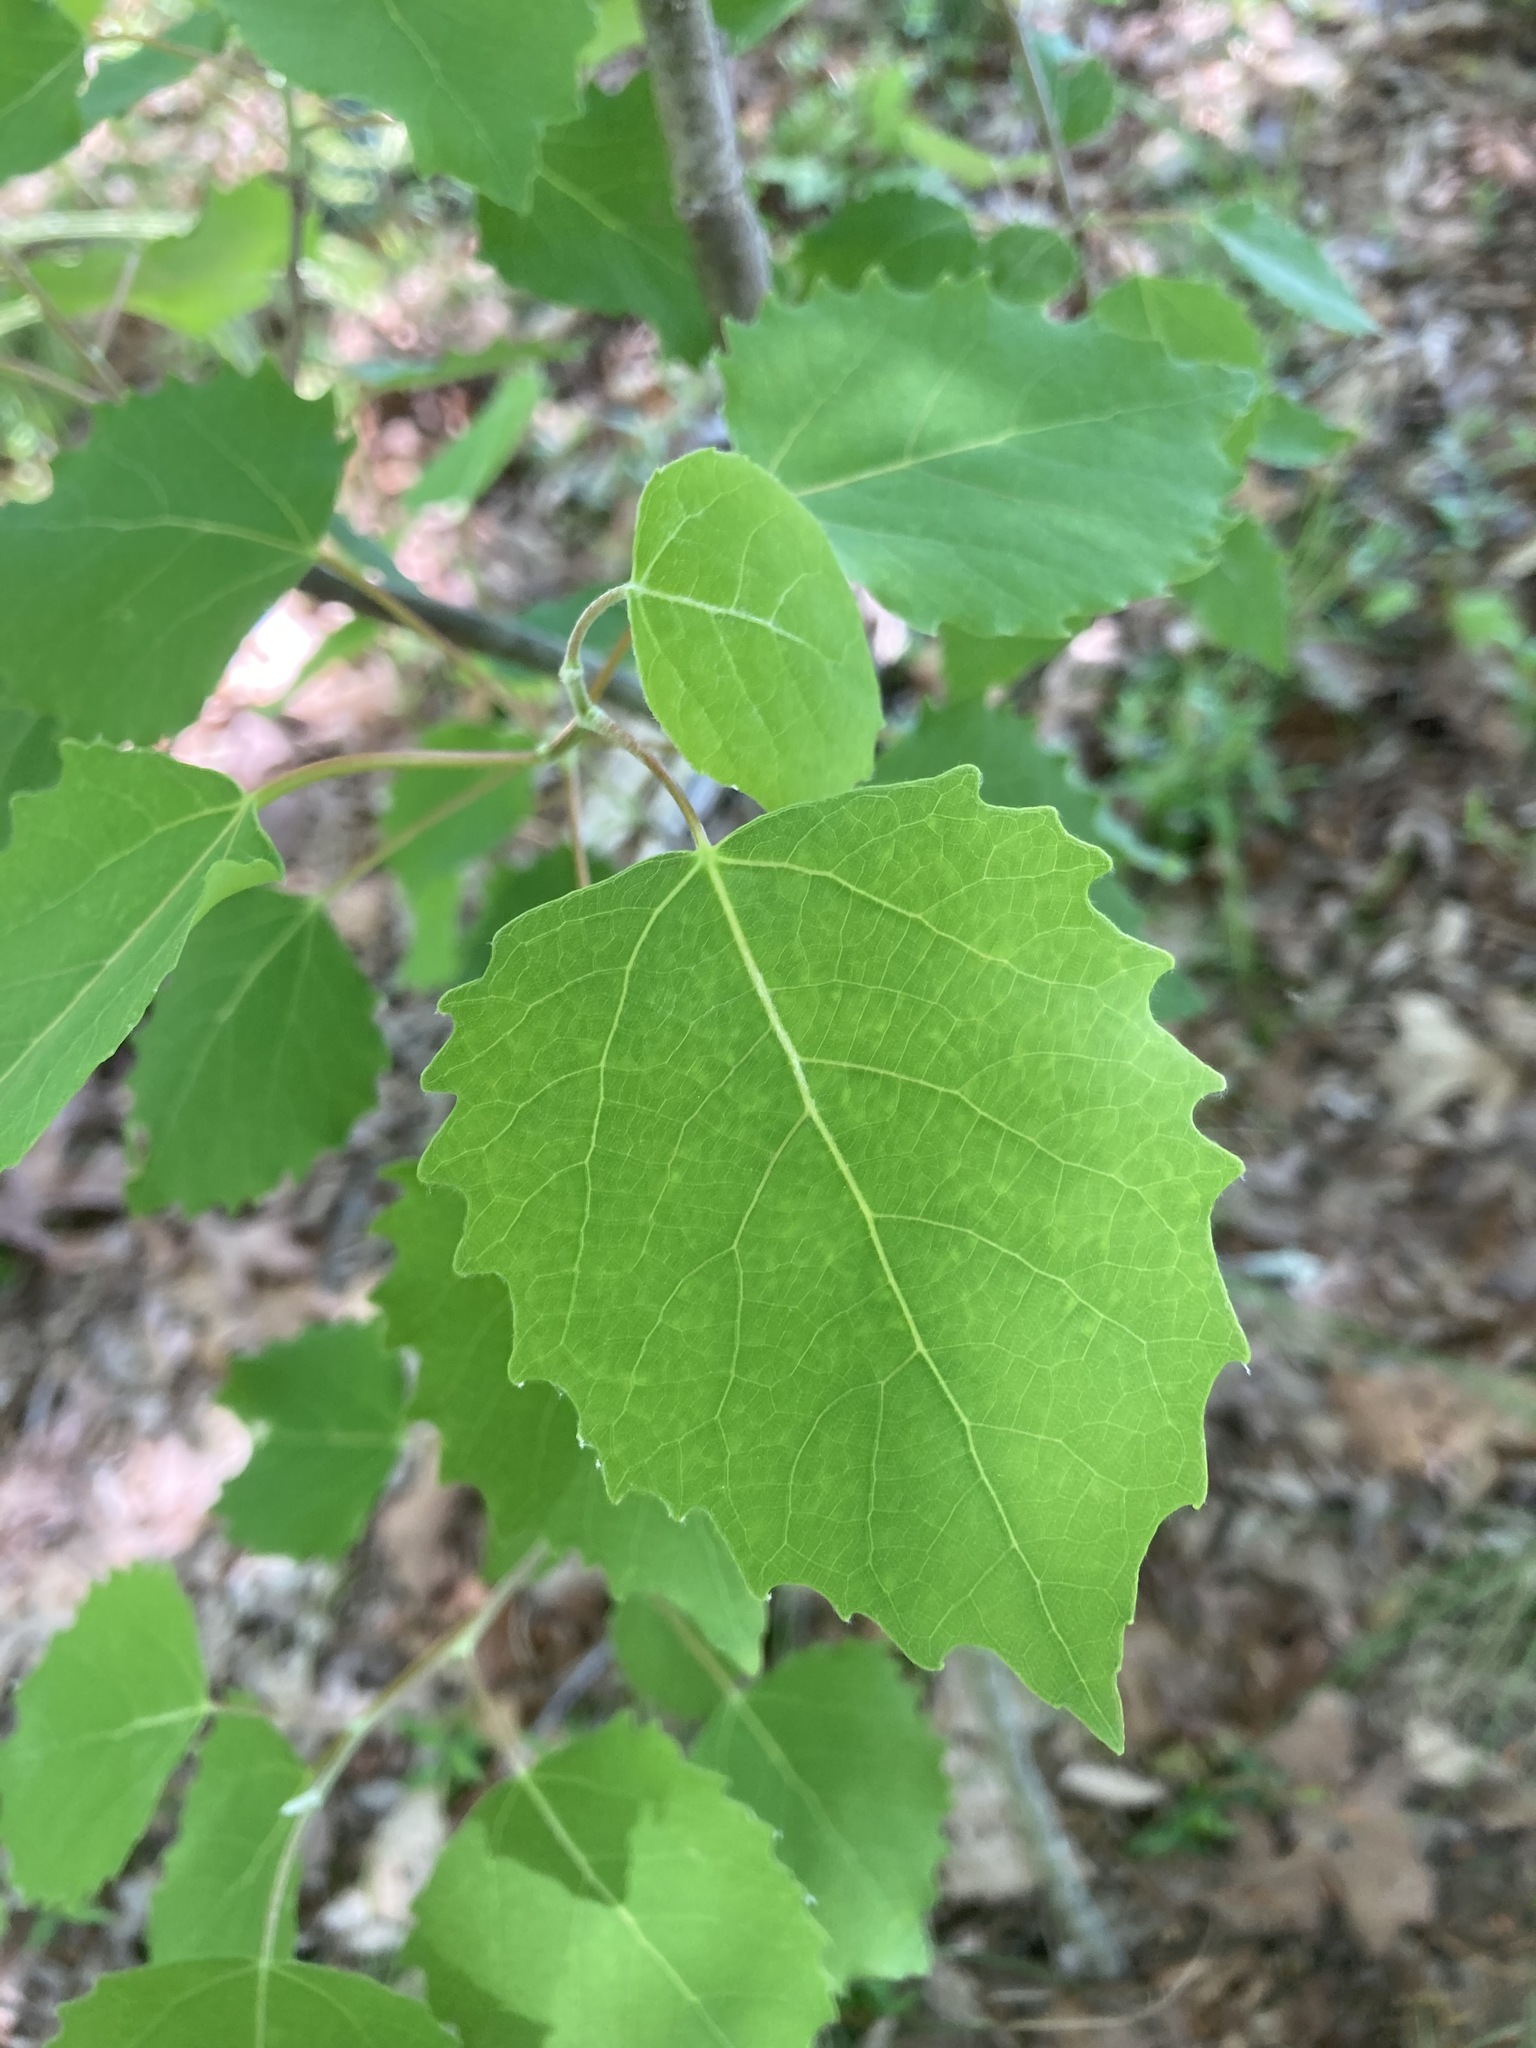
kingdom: Plantae
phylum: Tracheophyta
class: Magnoliopsida
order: Malpighiales
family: Salicaceae
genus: Populus
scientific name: Populus grandidentata
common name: Bigtooth aspen
